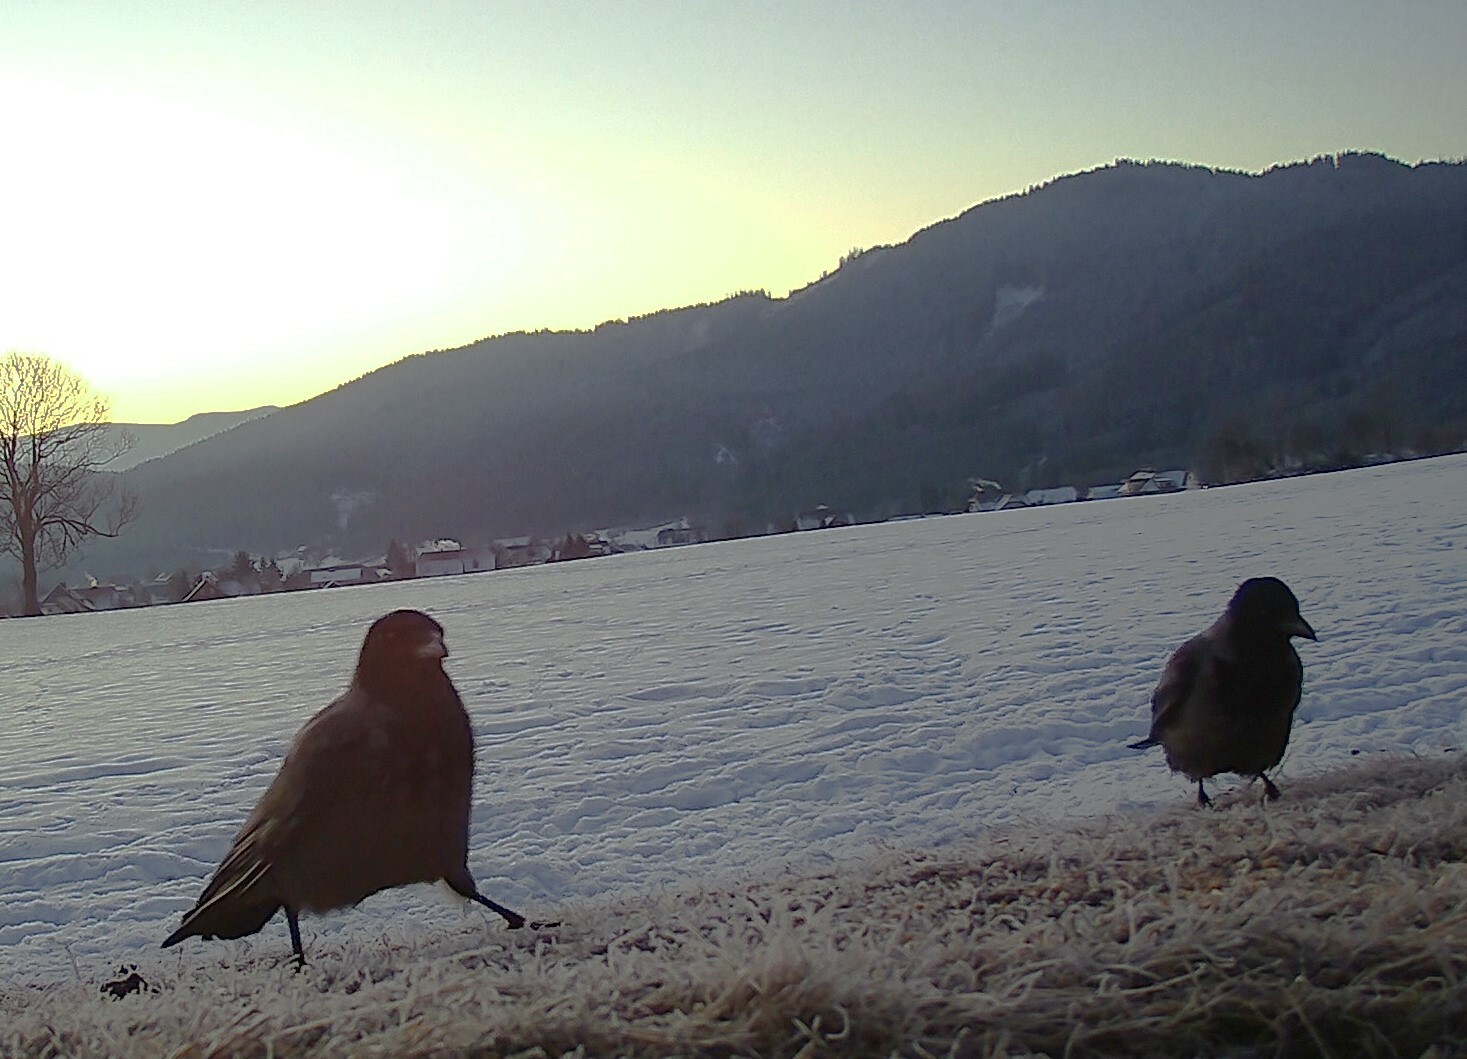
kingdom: Animalia
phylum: Chordata
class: Aves
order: Passeriformes
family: Corvidae
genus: Corvus
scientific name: Corvus corone
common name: Carrion crow
